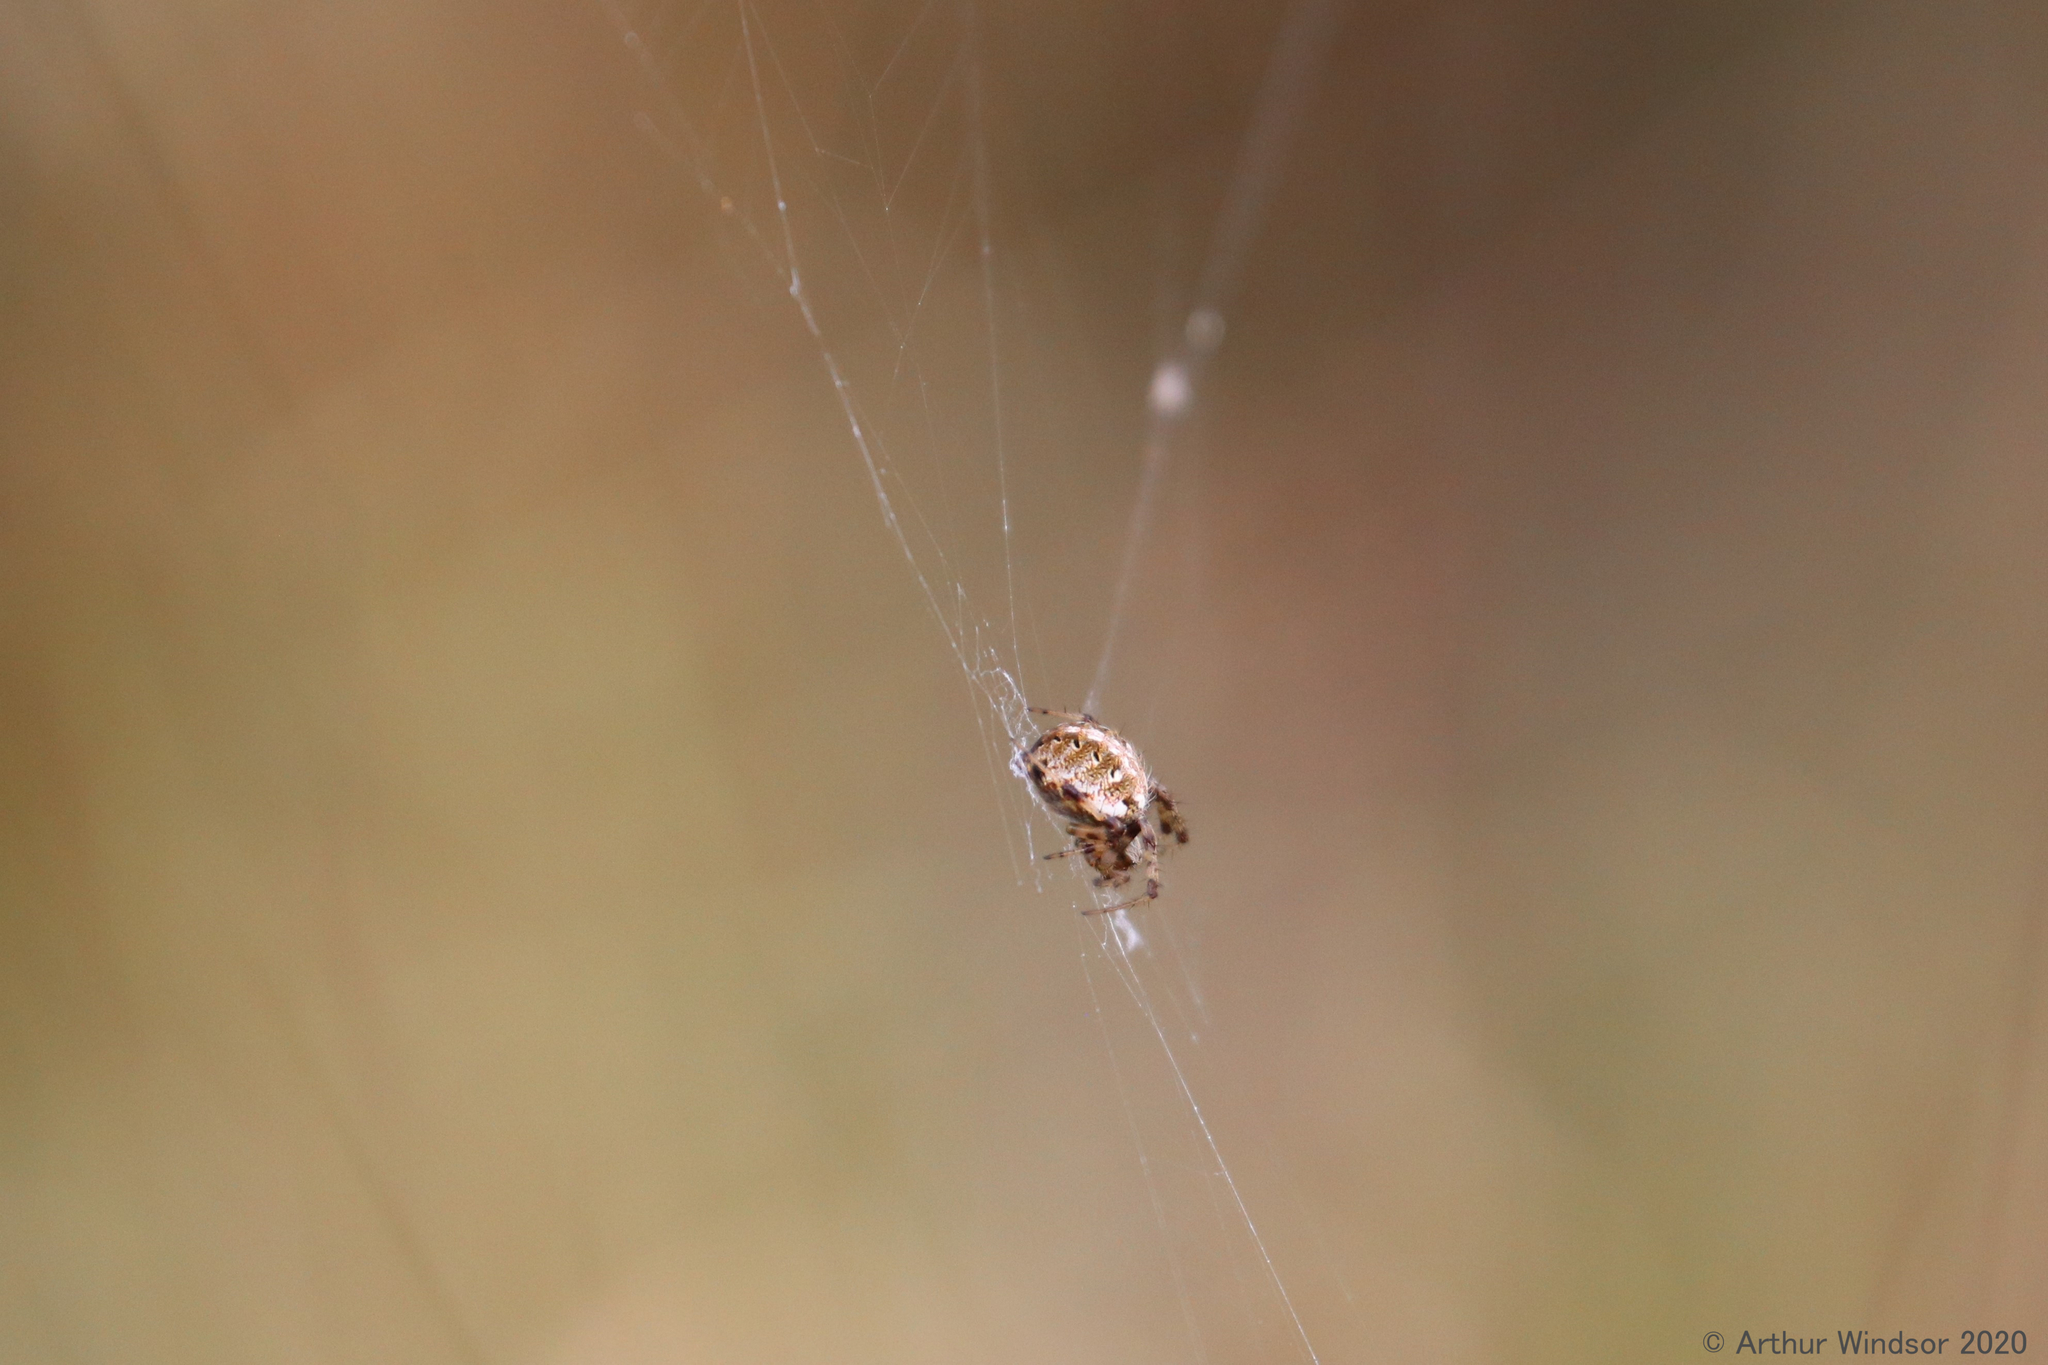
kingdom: Animalia
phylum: Arthropoda
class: Arachnida
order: Araneae
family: Araneidae
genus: Neoscona
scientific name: Neoscona arabesca
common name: Orb weavers
